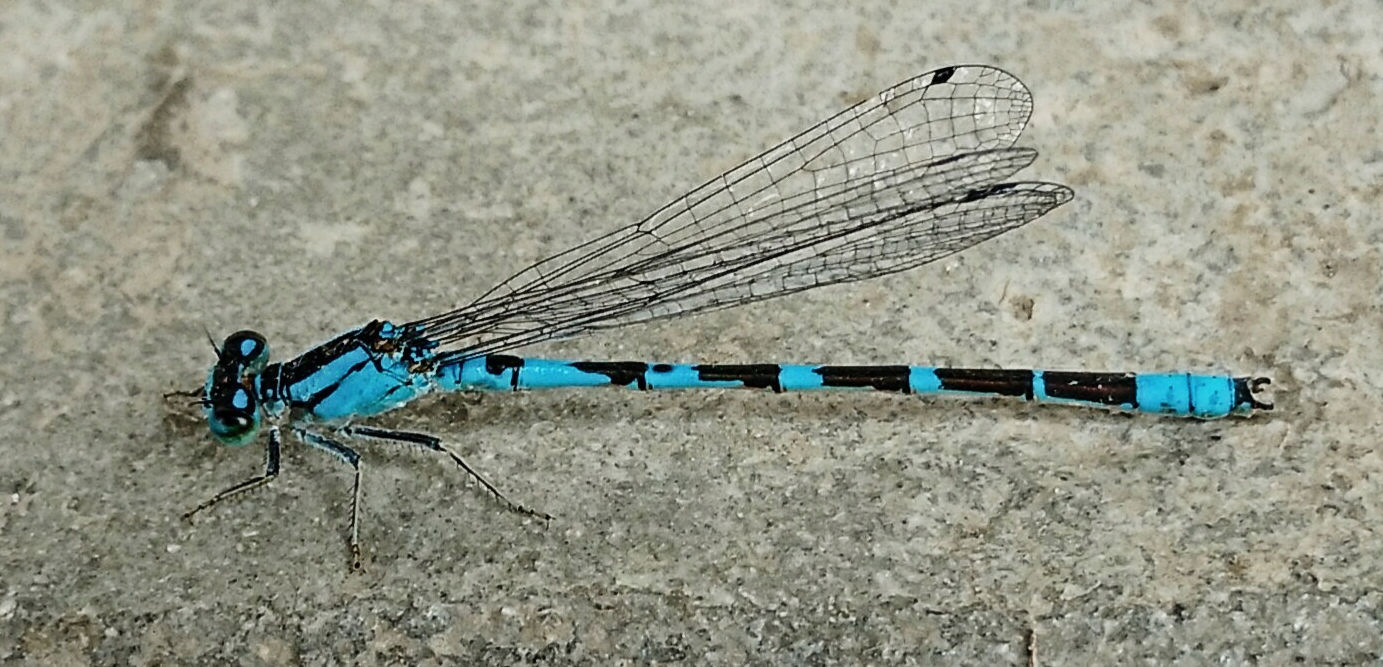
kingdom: Animalia
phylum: Arthropoda
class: Insecta
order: Odonata
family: Coenagrionidae
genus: Enallagma
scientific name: Enallagma anna
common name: River bluet
